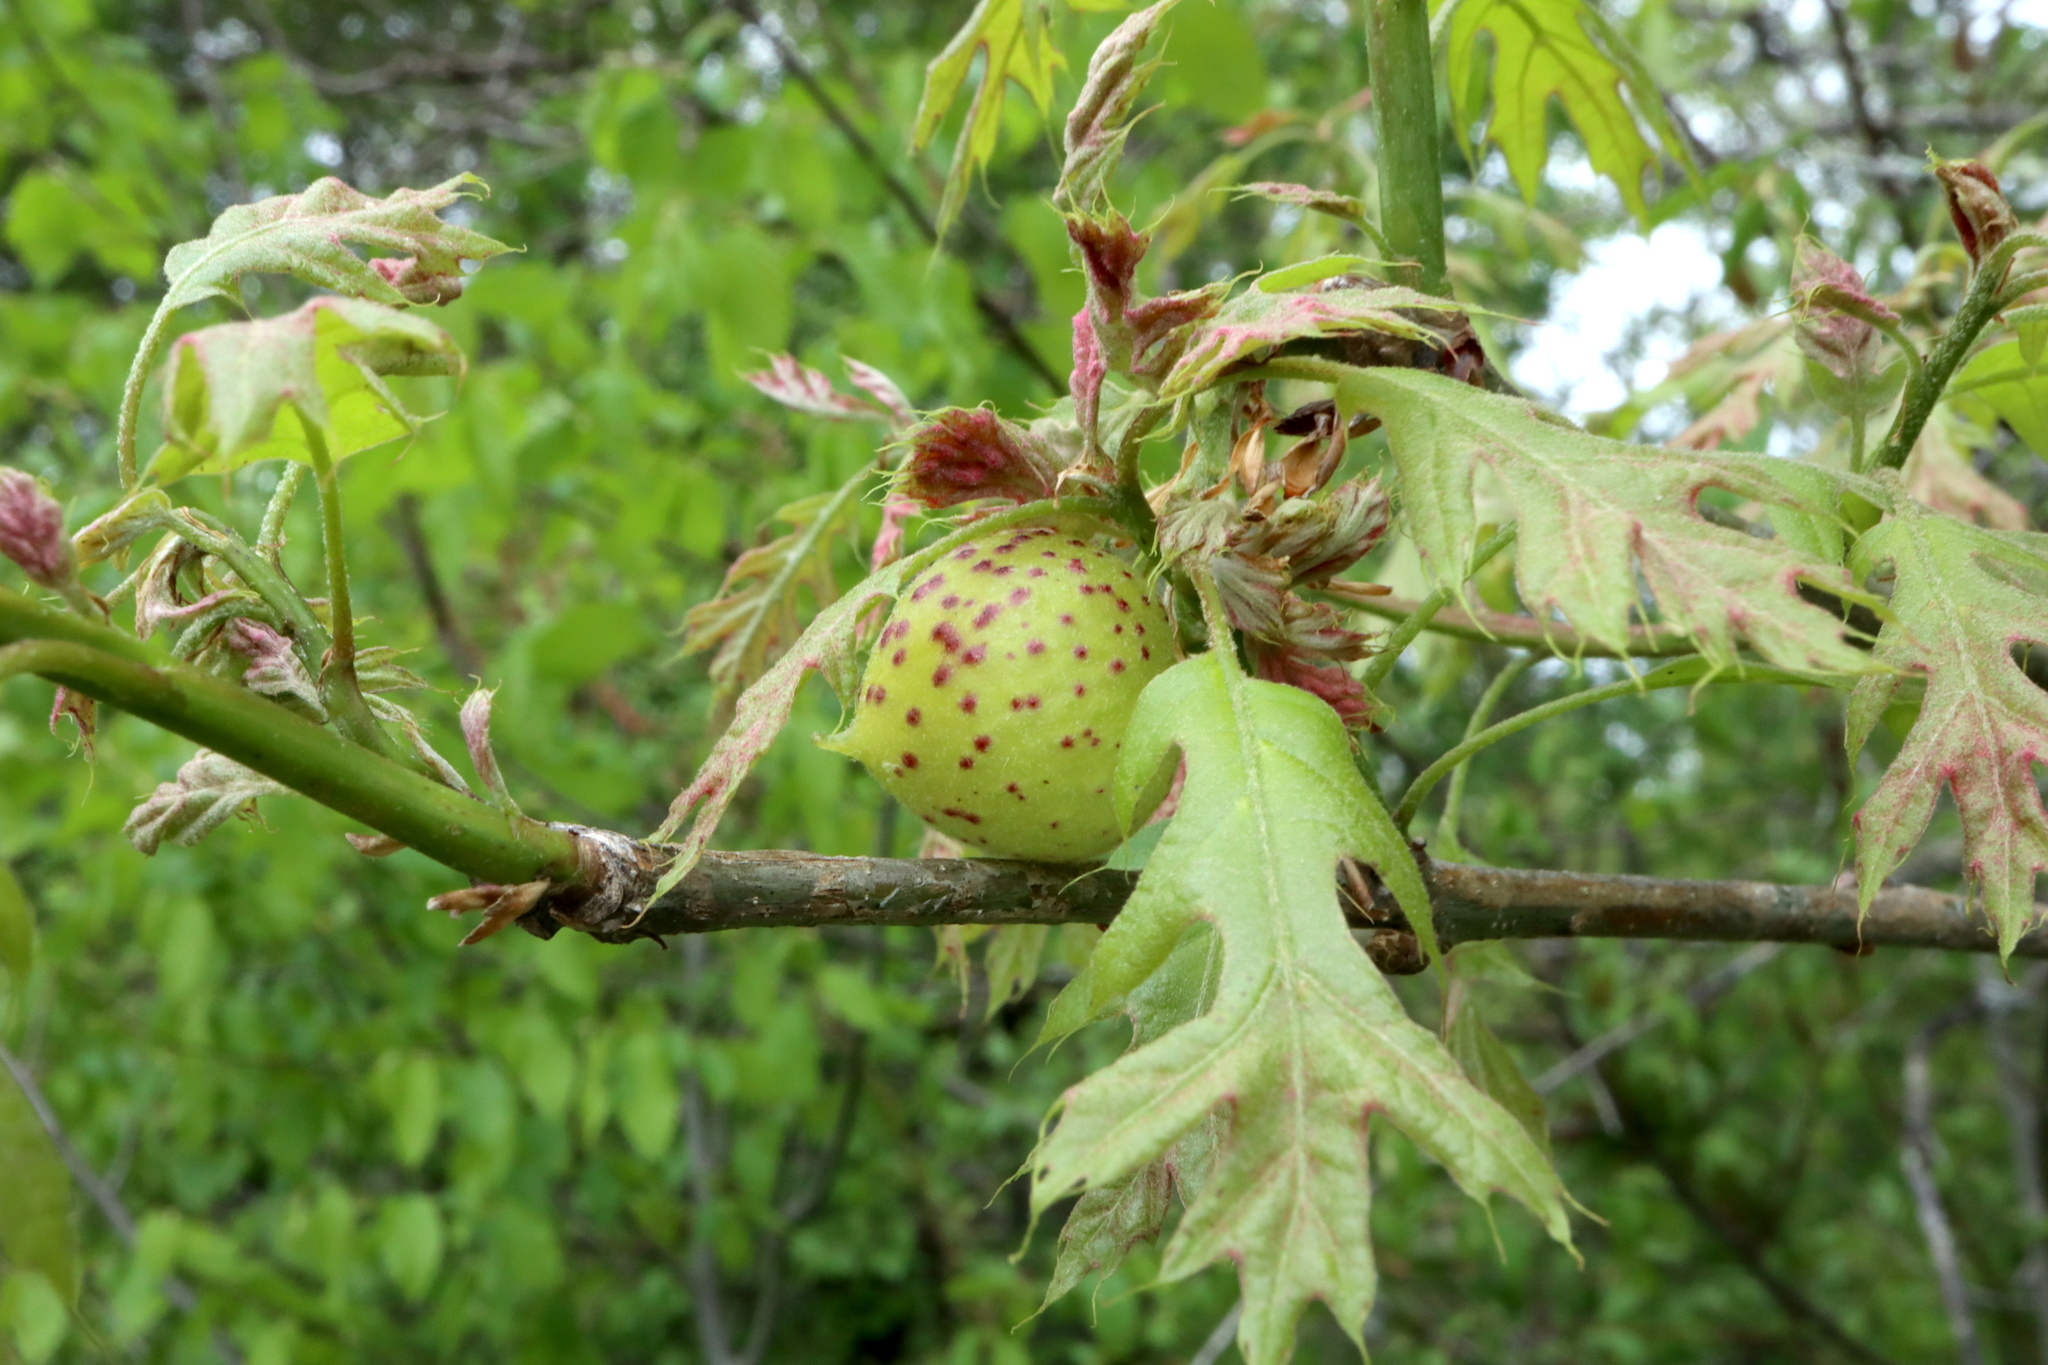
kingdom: Animalia
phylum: Arthropoda
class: Insecta
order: Hymenoptera
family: Cynipidae
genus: Amphibolips
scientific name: Amphibolips
